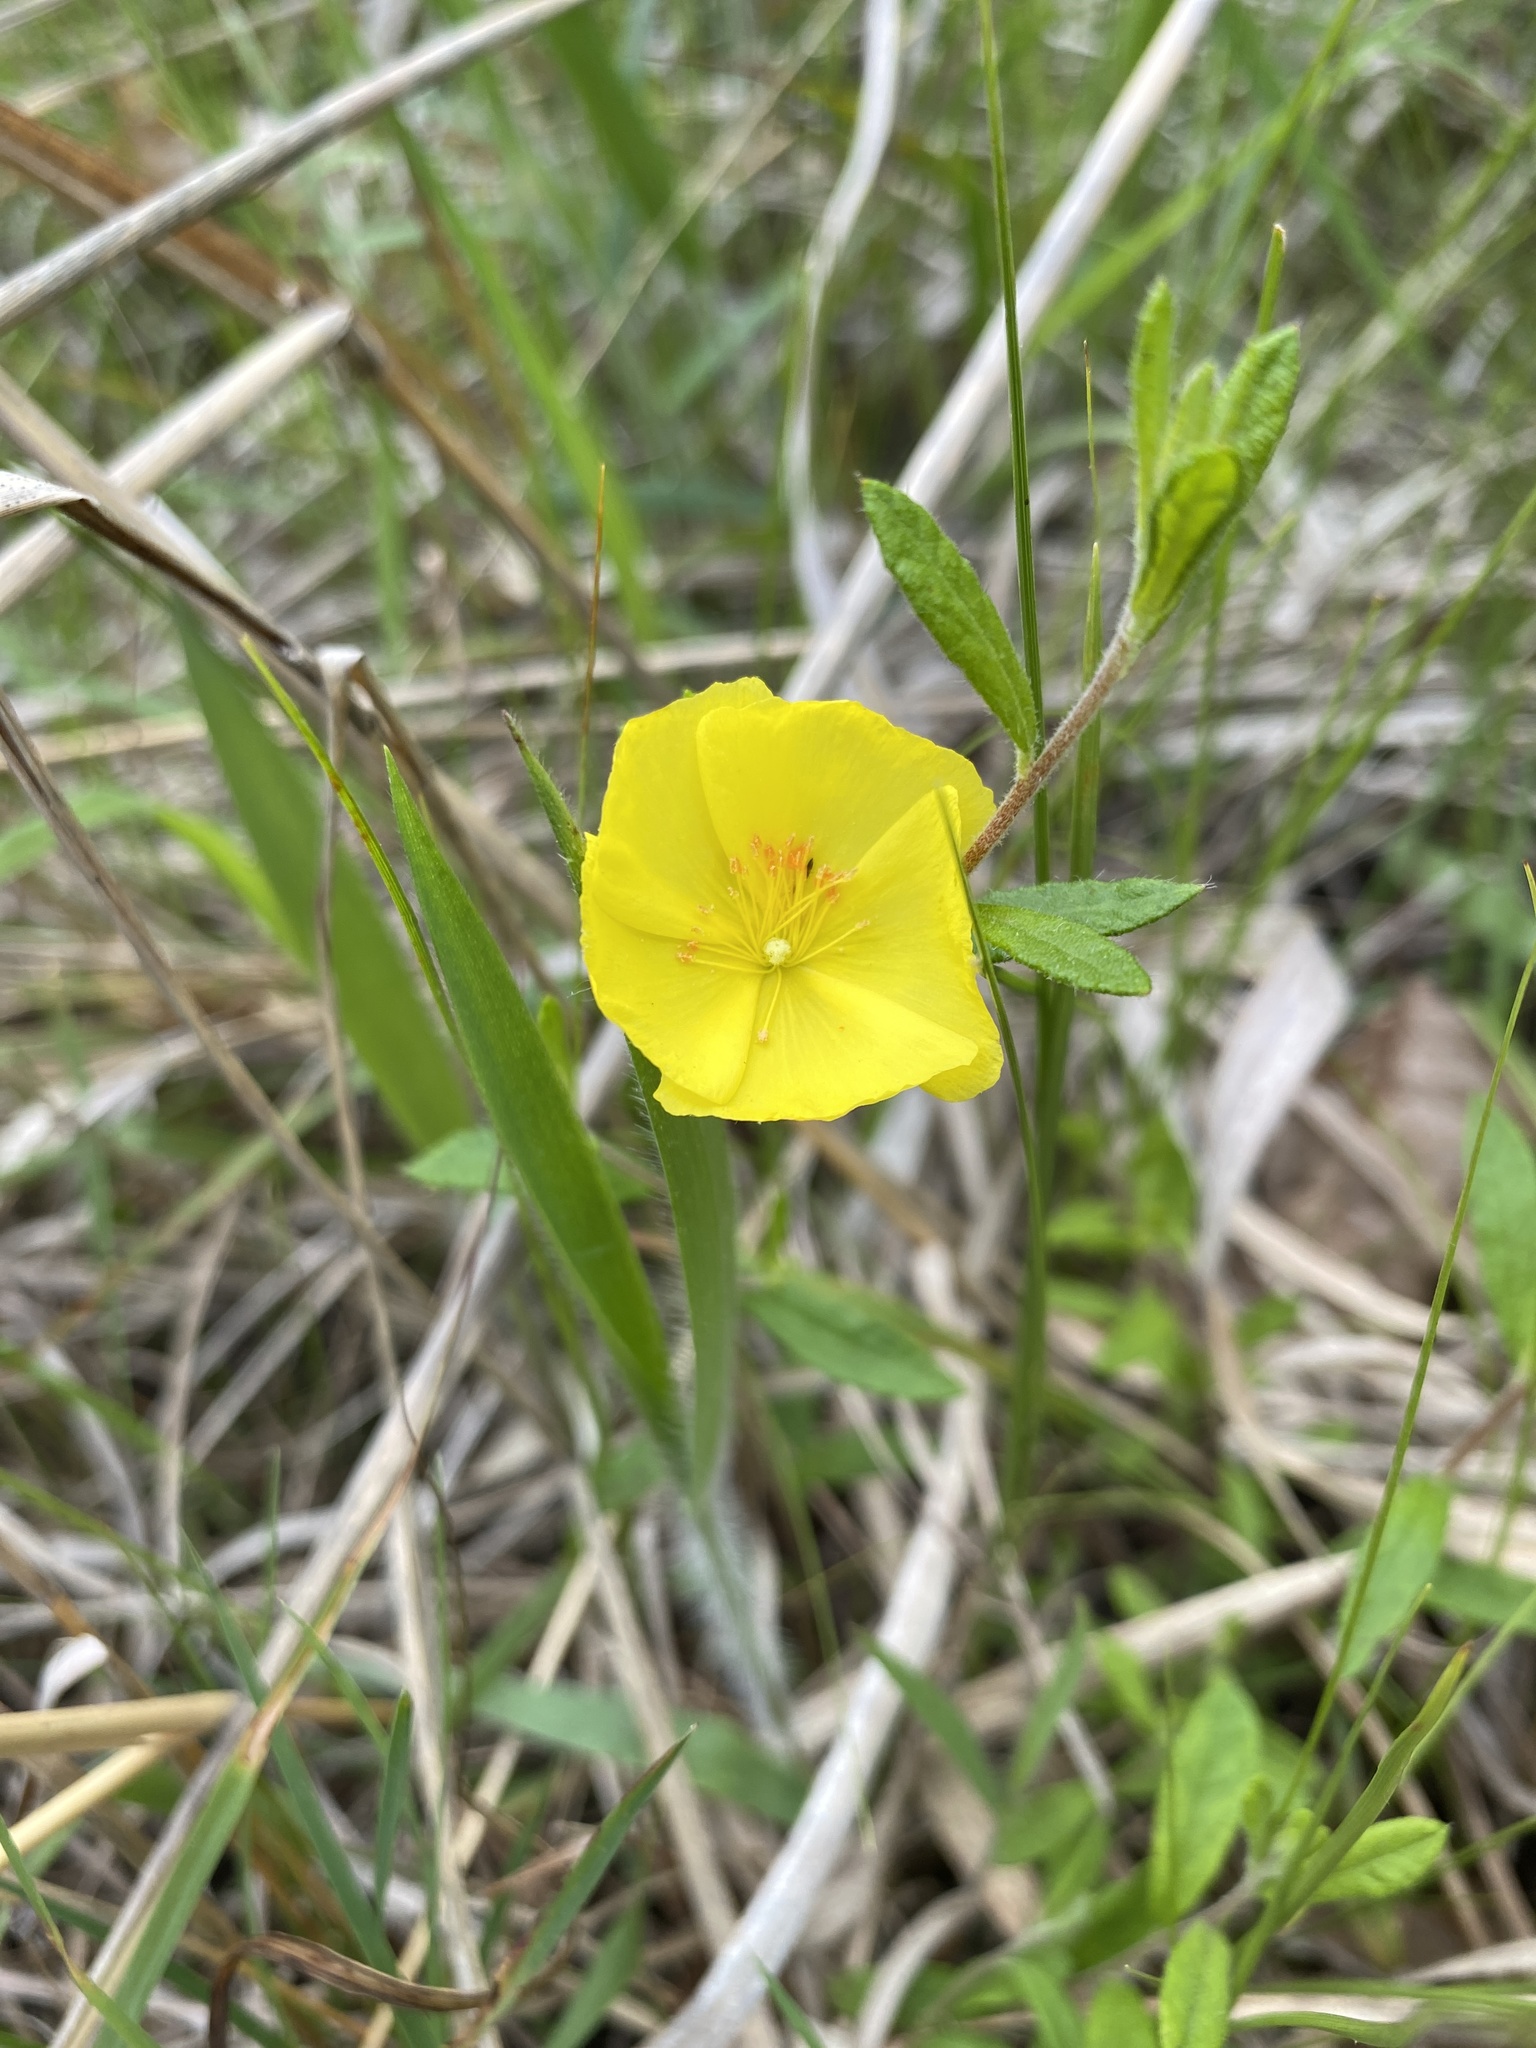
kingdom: Plantae
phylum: Tracheophyta
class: Magnoliopsida
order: Malvales
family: Cistaceae
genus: Crocanthemum
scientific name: Crocanthemum canadense
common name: Canada frostweed
